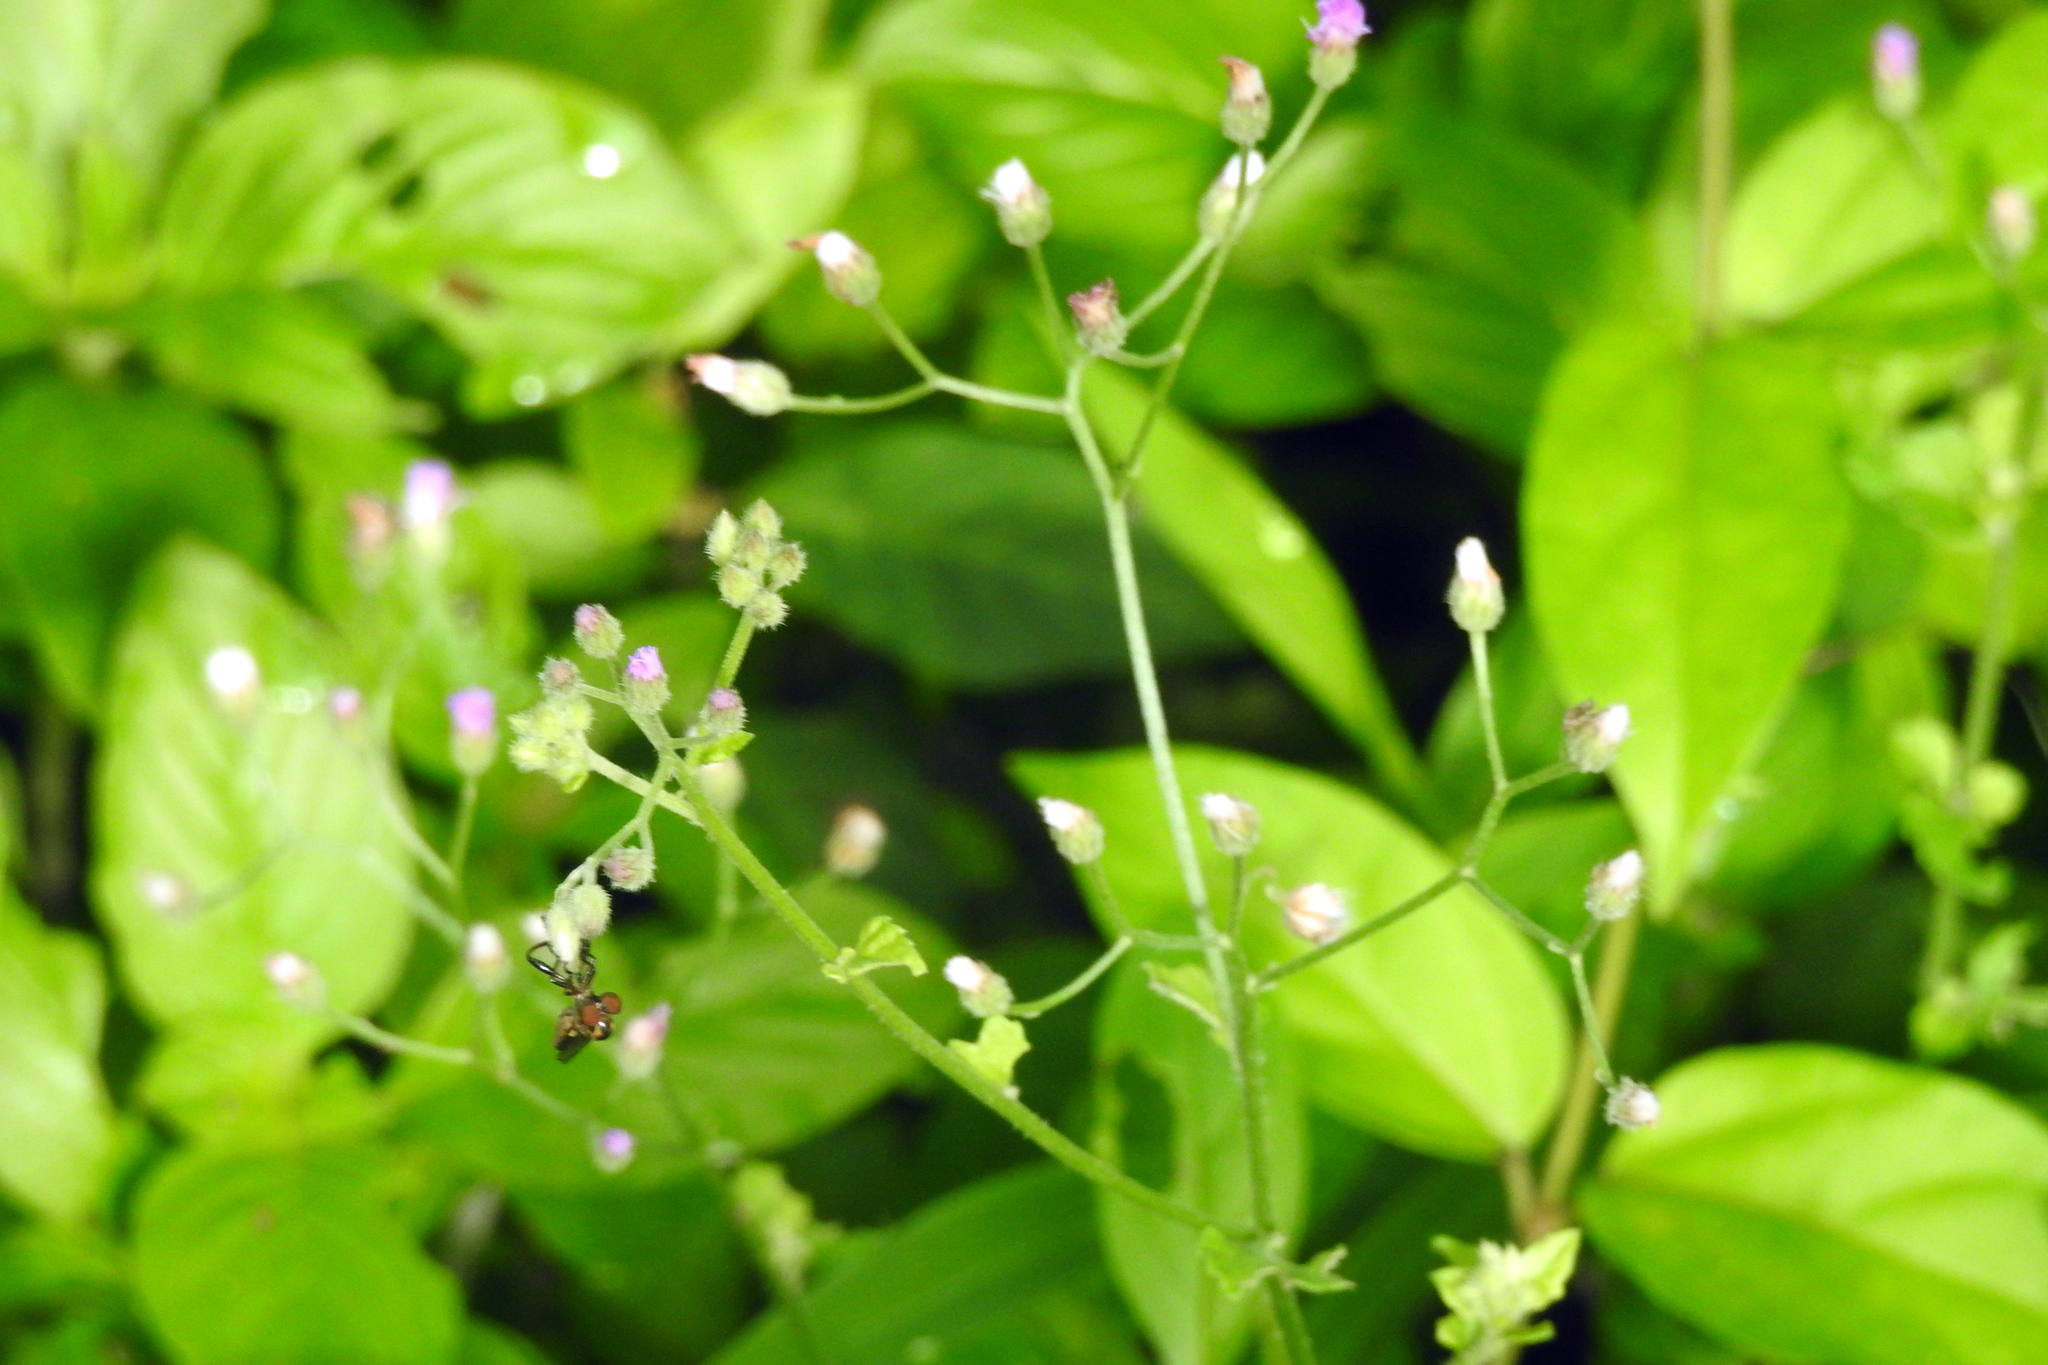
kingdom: Plantae
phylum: Tracheophyta
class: Magnoliopsida
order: Asterales
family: Asteraceae
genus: Cyanthillium
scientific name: Cyanthillium cinereum
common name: Little ironweed
